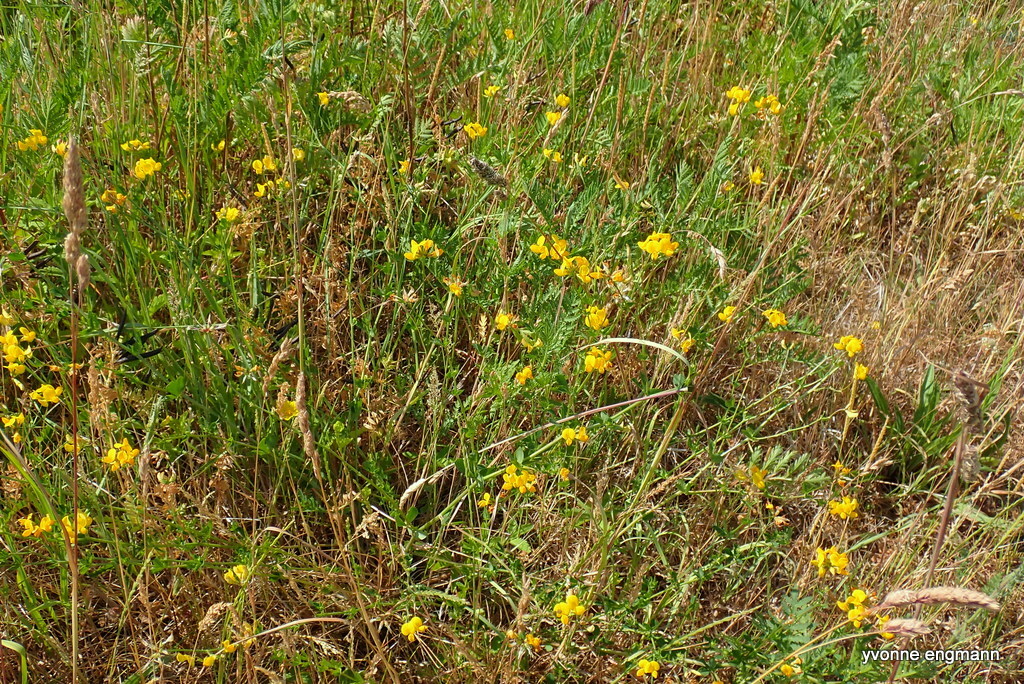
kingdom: Plantae
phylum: Tracheophyta
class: Magnoliopsida
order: Fabales
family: Fabaceae
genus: Lotus
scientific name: Lotus corniculatus
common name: Common bird's-foot-trefoil
